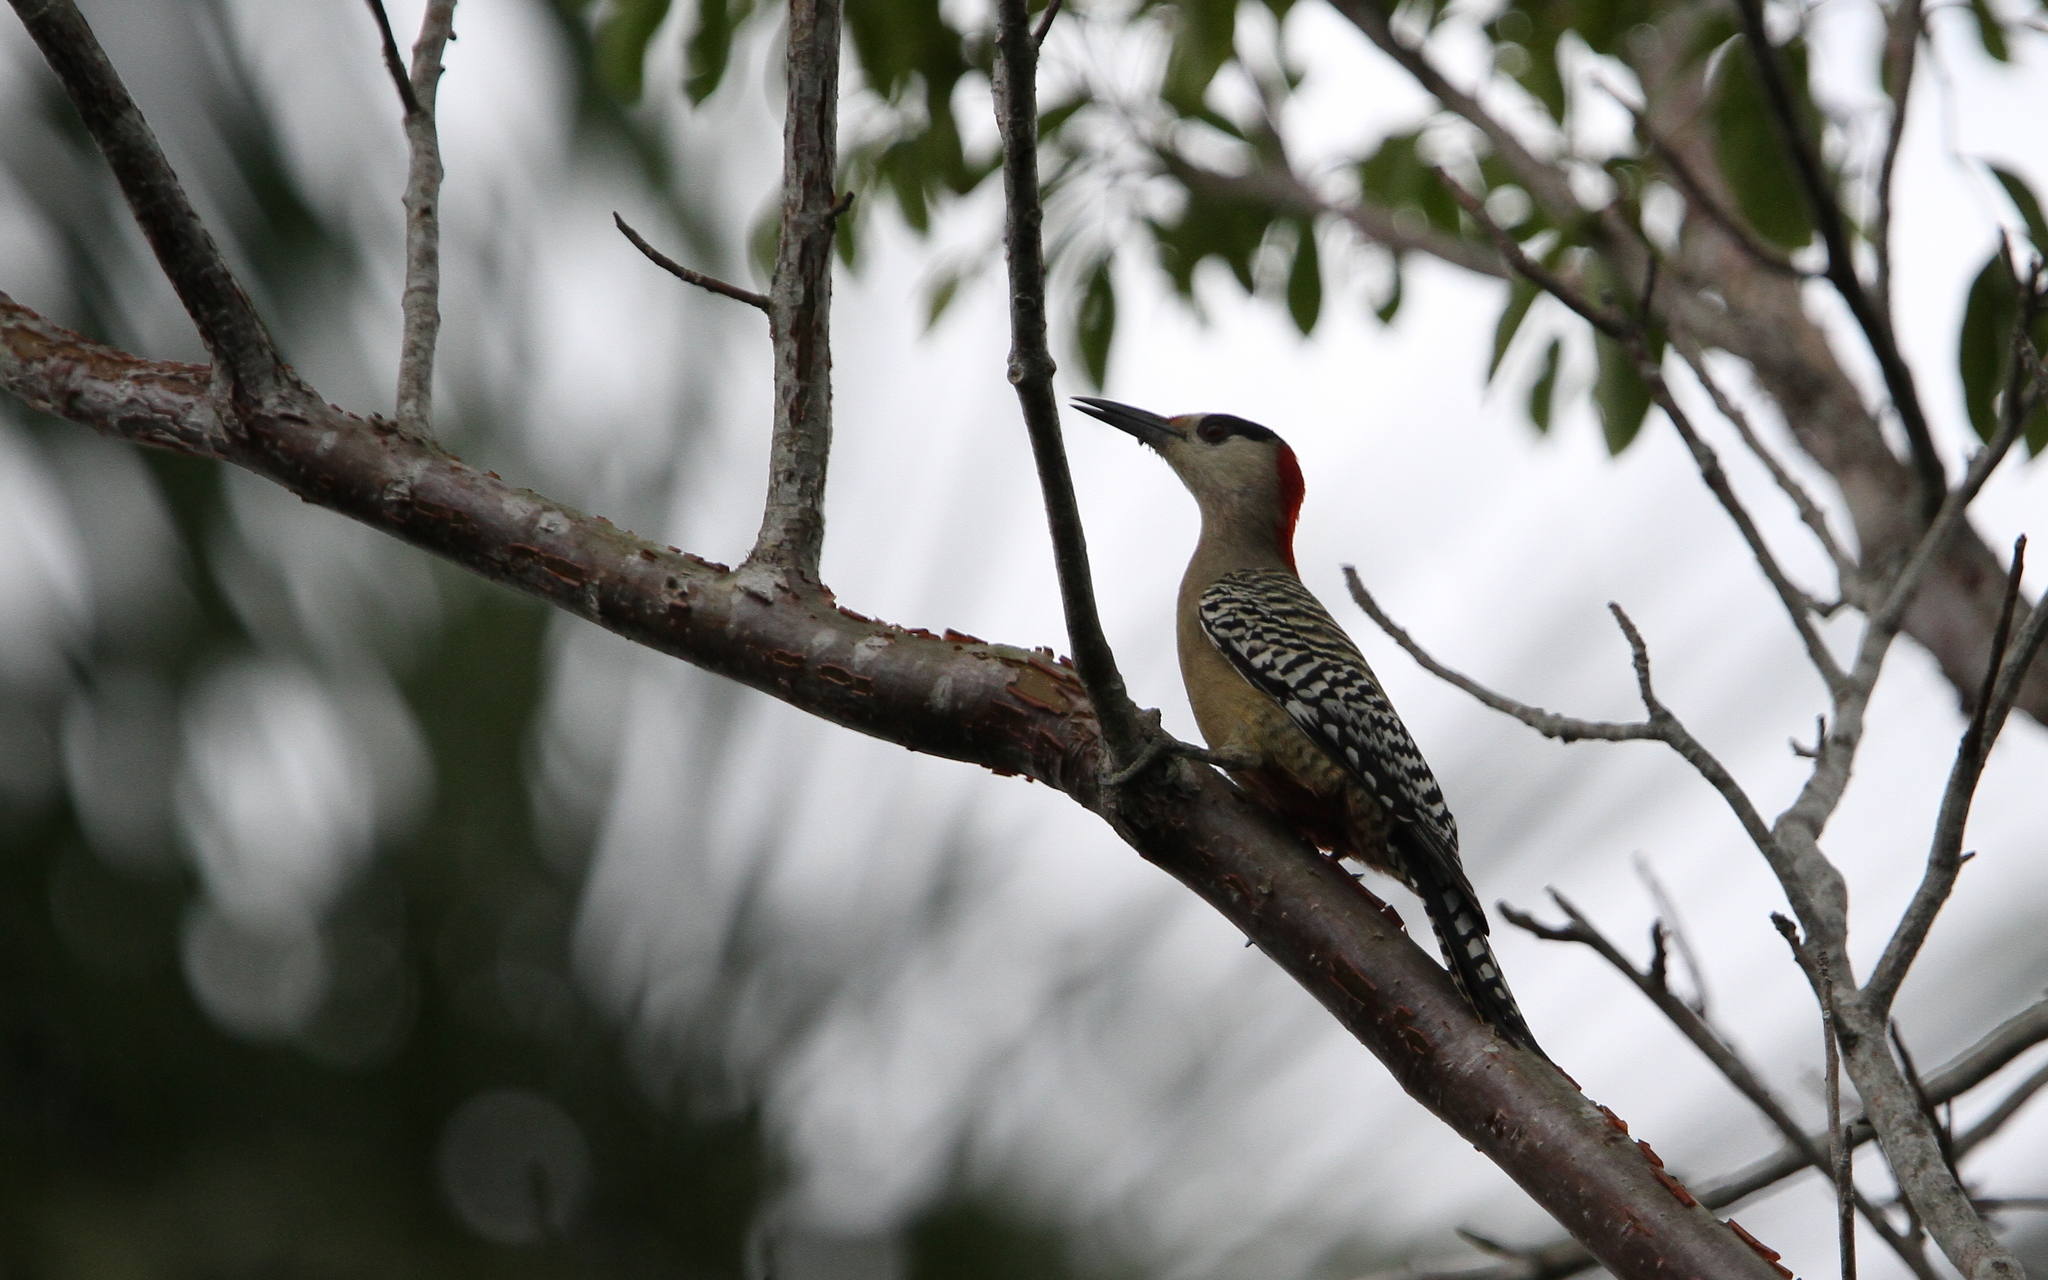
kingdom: Animalia
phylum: Chordata
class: Aves
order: Piciformes
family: Picidae
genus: Melanerpes
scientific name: Melanerpes superciliaris
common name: West indian woodpecker
